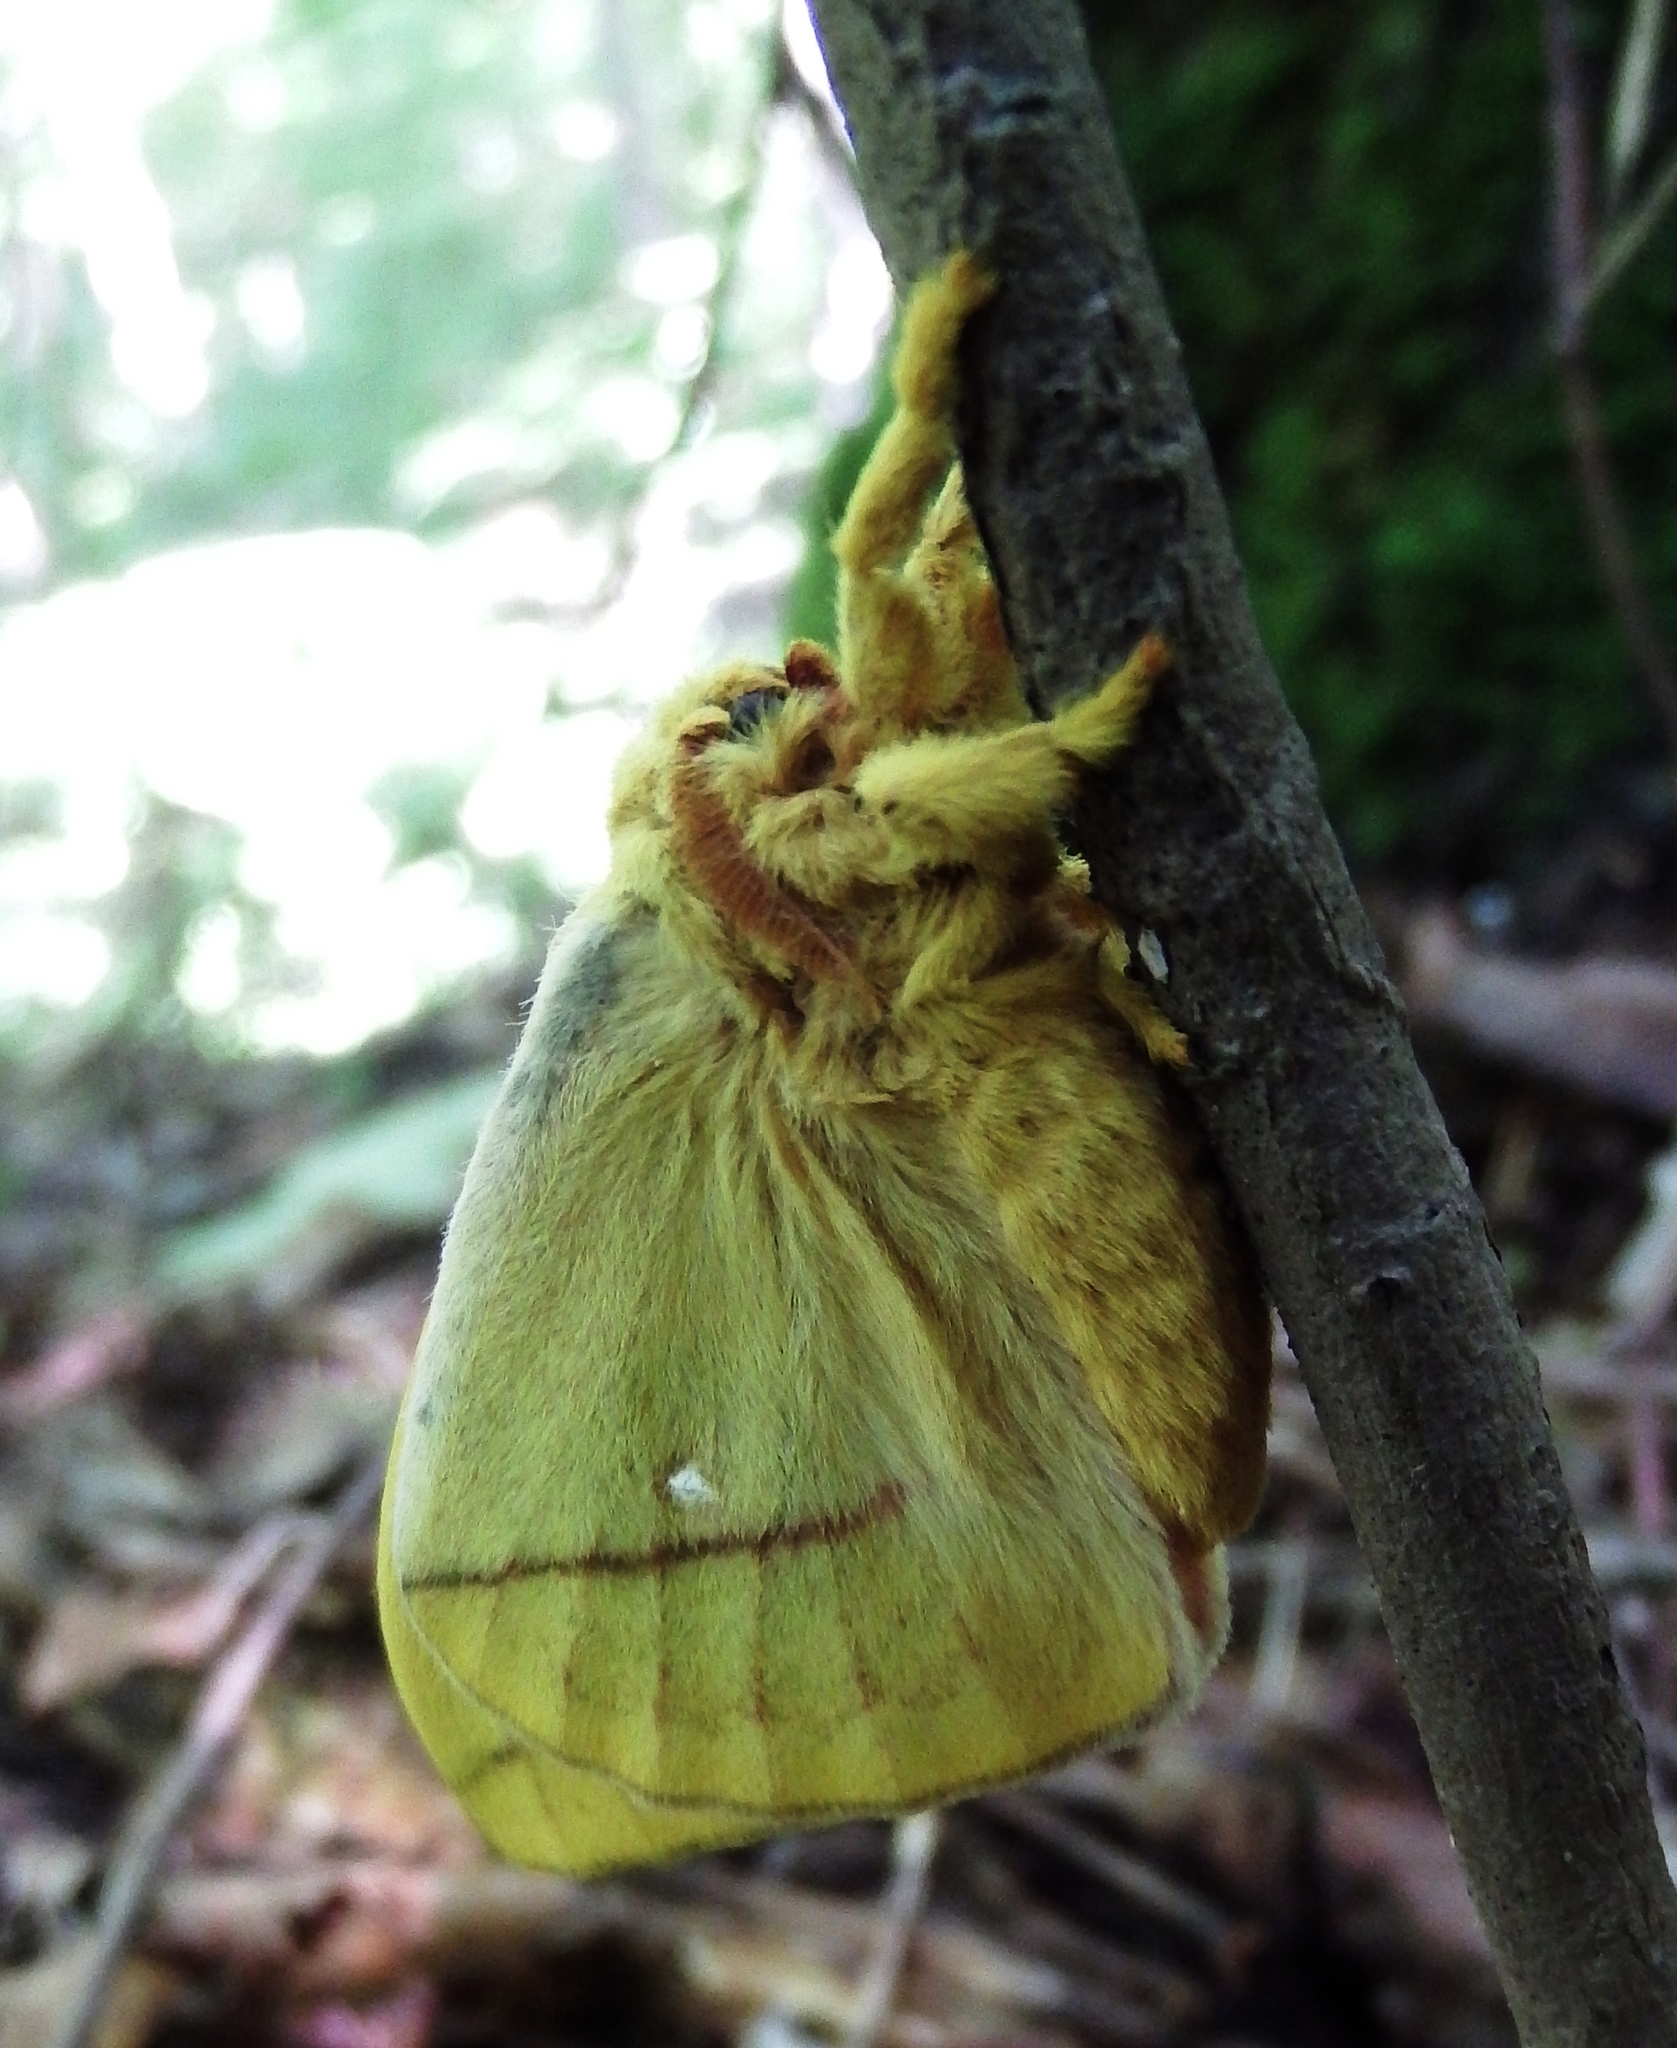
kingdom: Animalia
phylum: Arthropoda
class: Insecta
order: Lepidoptera
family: Saturniidae
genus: Automeris
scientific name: Automeris io
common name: Io moth
